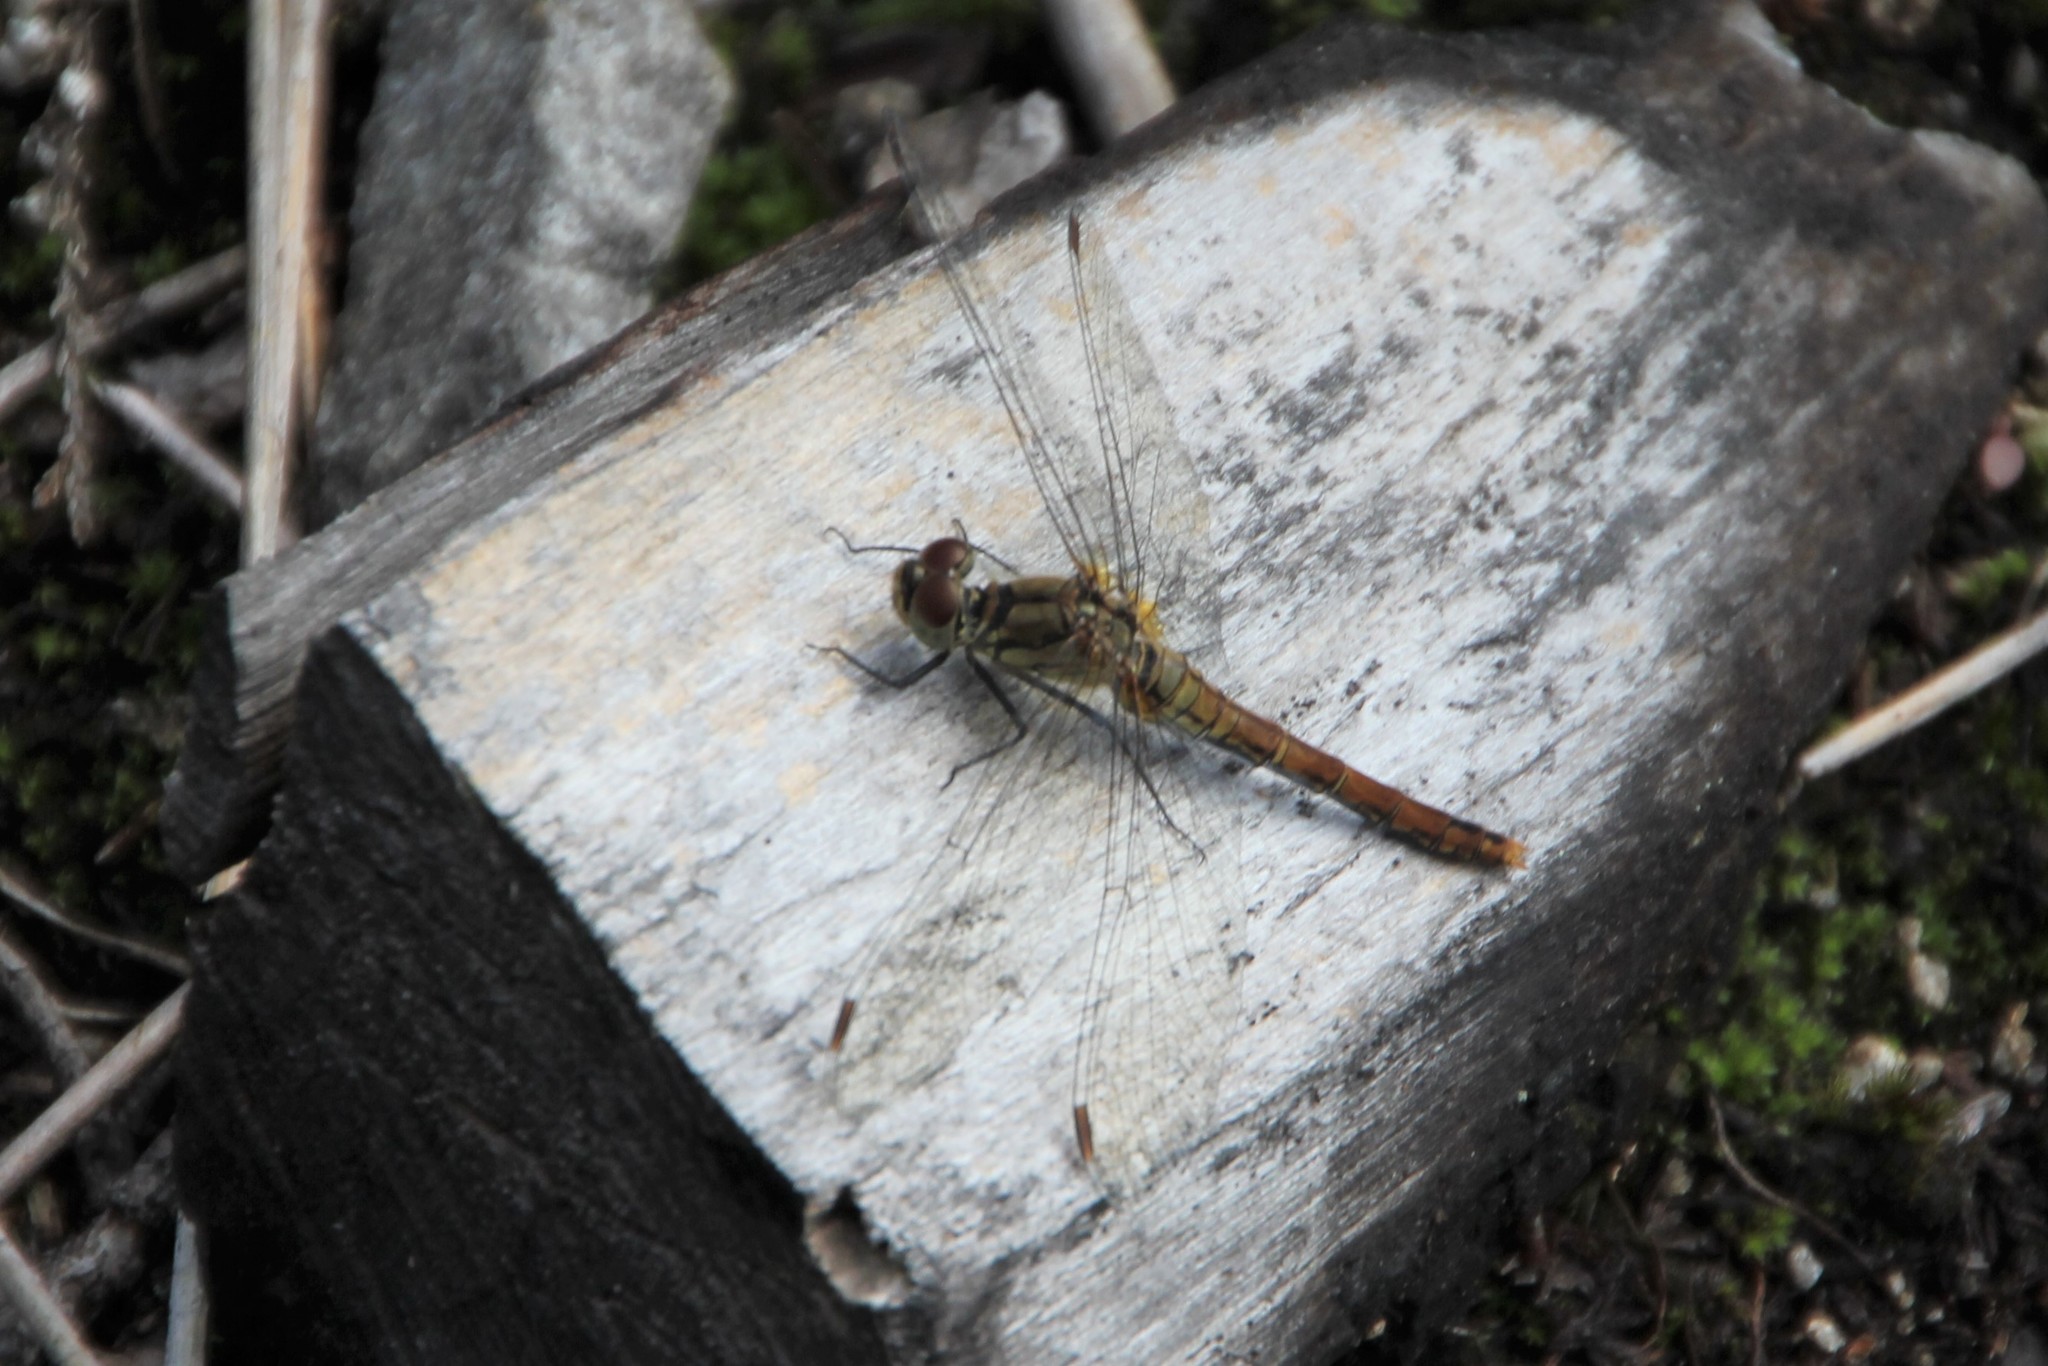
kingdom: Animalia
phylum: Arthropoda
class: Insecta
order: Odonata
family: Libellulidae
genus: Sympetrum
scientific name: Sympetrum sanguineum
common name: Ruddy darter
